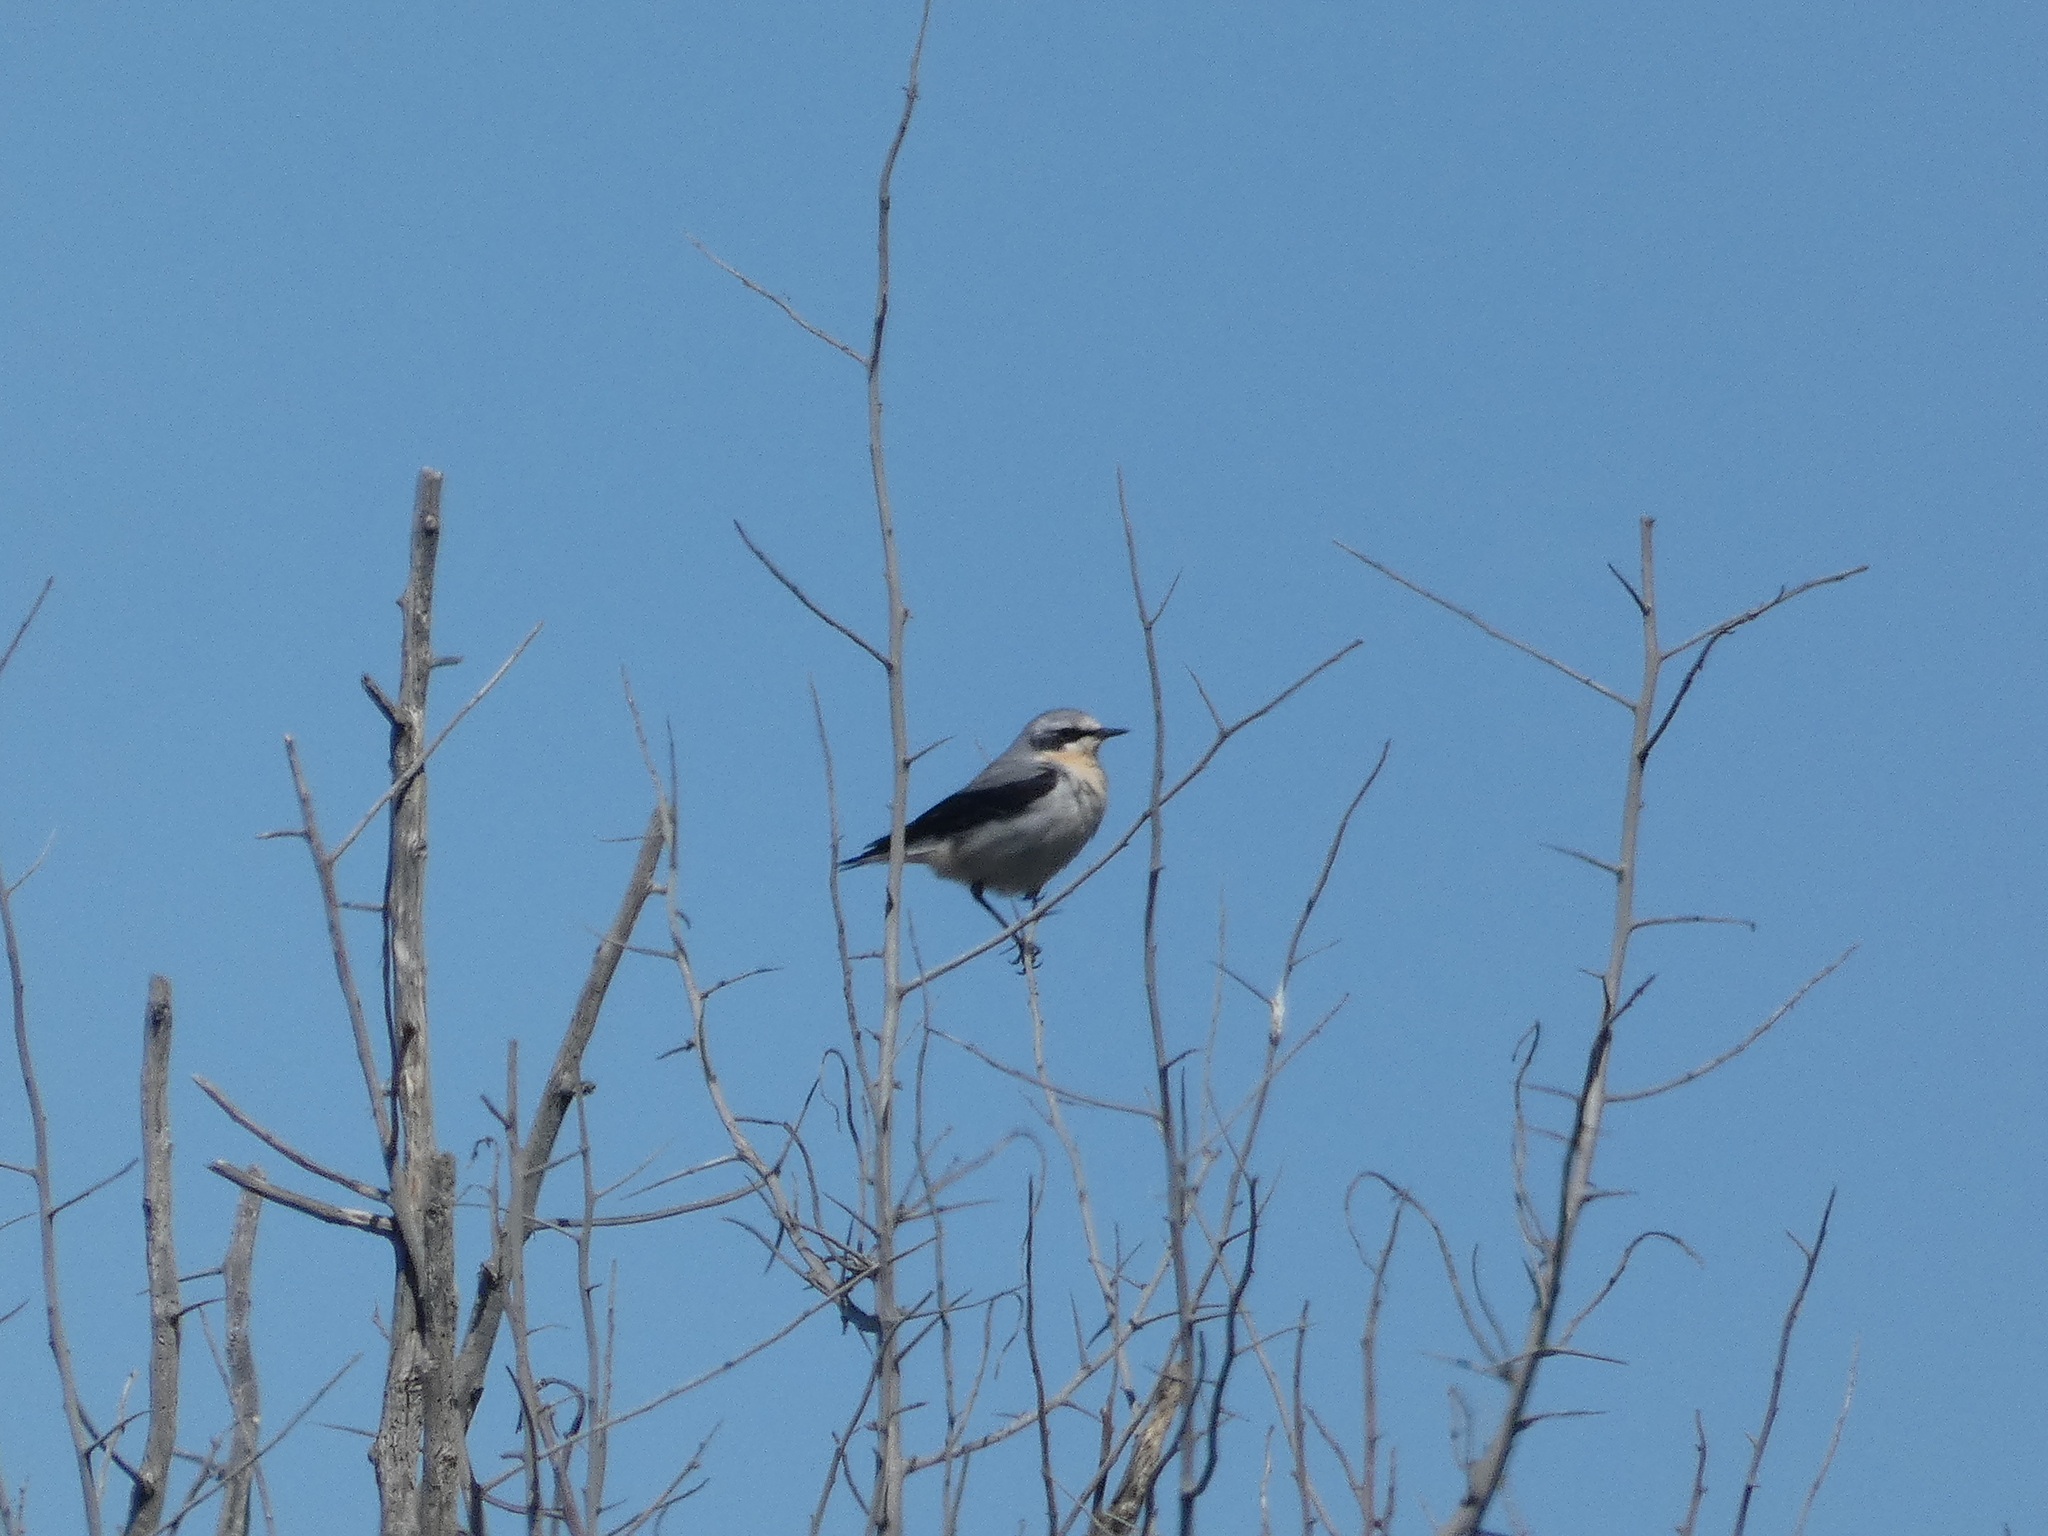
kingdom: Animalia
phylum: Chordata
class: Aves
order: Passeriformes
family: Muscicapidae
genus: Oenanthe
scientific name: Oenanthe oenanthe
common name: Northern wheatear
